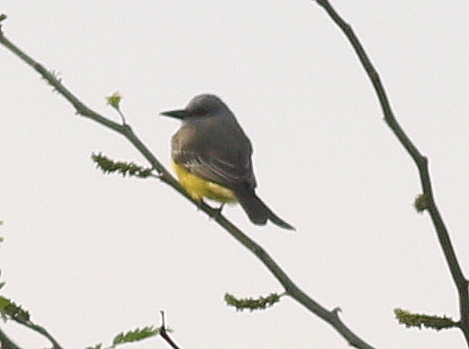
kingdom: Animalia
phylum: Chordata
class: Aves
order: Passeriformes
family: Tyrannidae
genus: Tyrannus
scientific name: Tyrannus melancholicus
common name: Tropical kingbird
